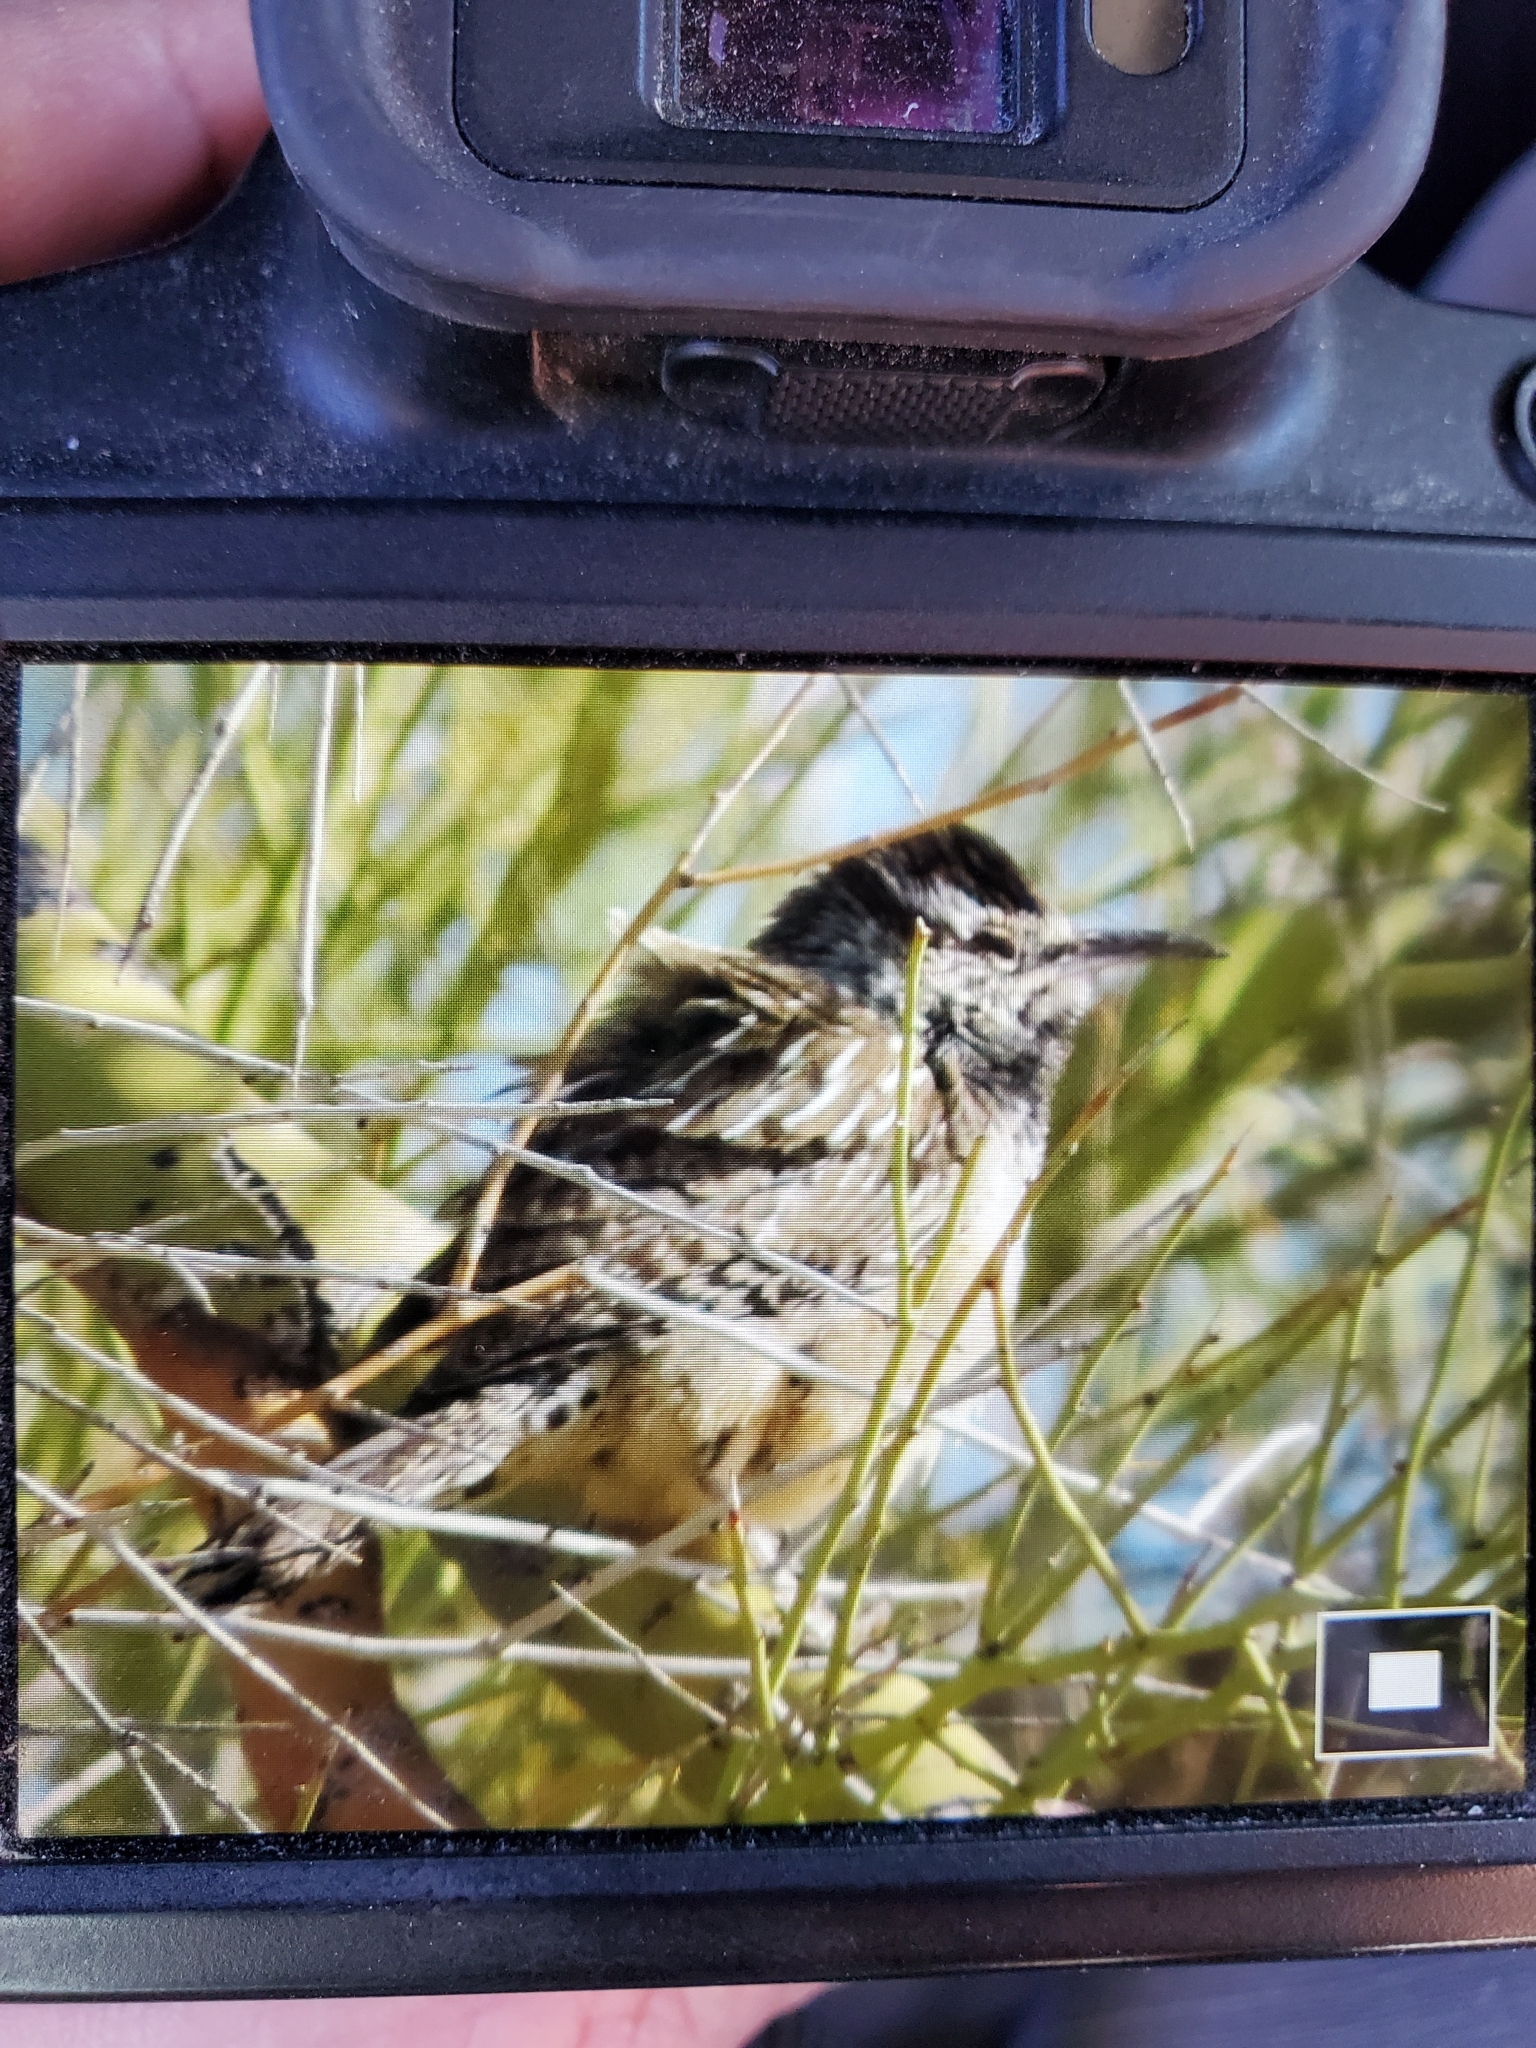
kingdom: Animalia
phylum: Chordata
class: Aves
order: Passeriformes
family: Troglodytidae
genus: Campylorhynchus
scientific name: Campylorhynchus brunneicapillus
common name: Cactus wren
